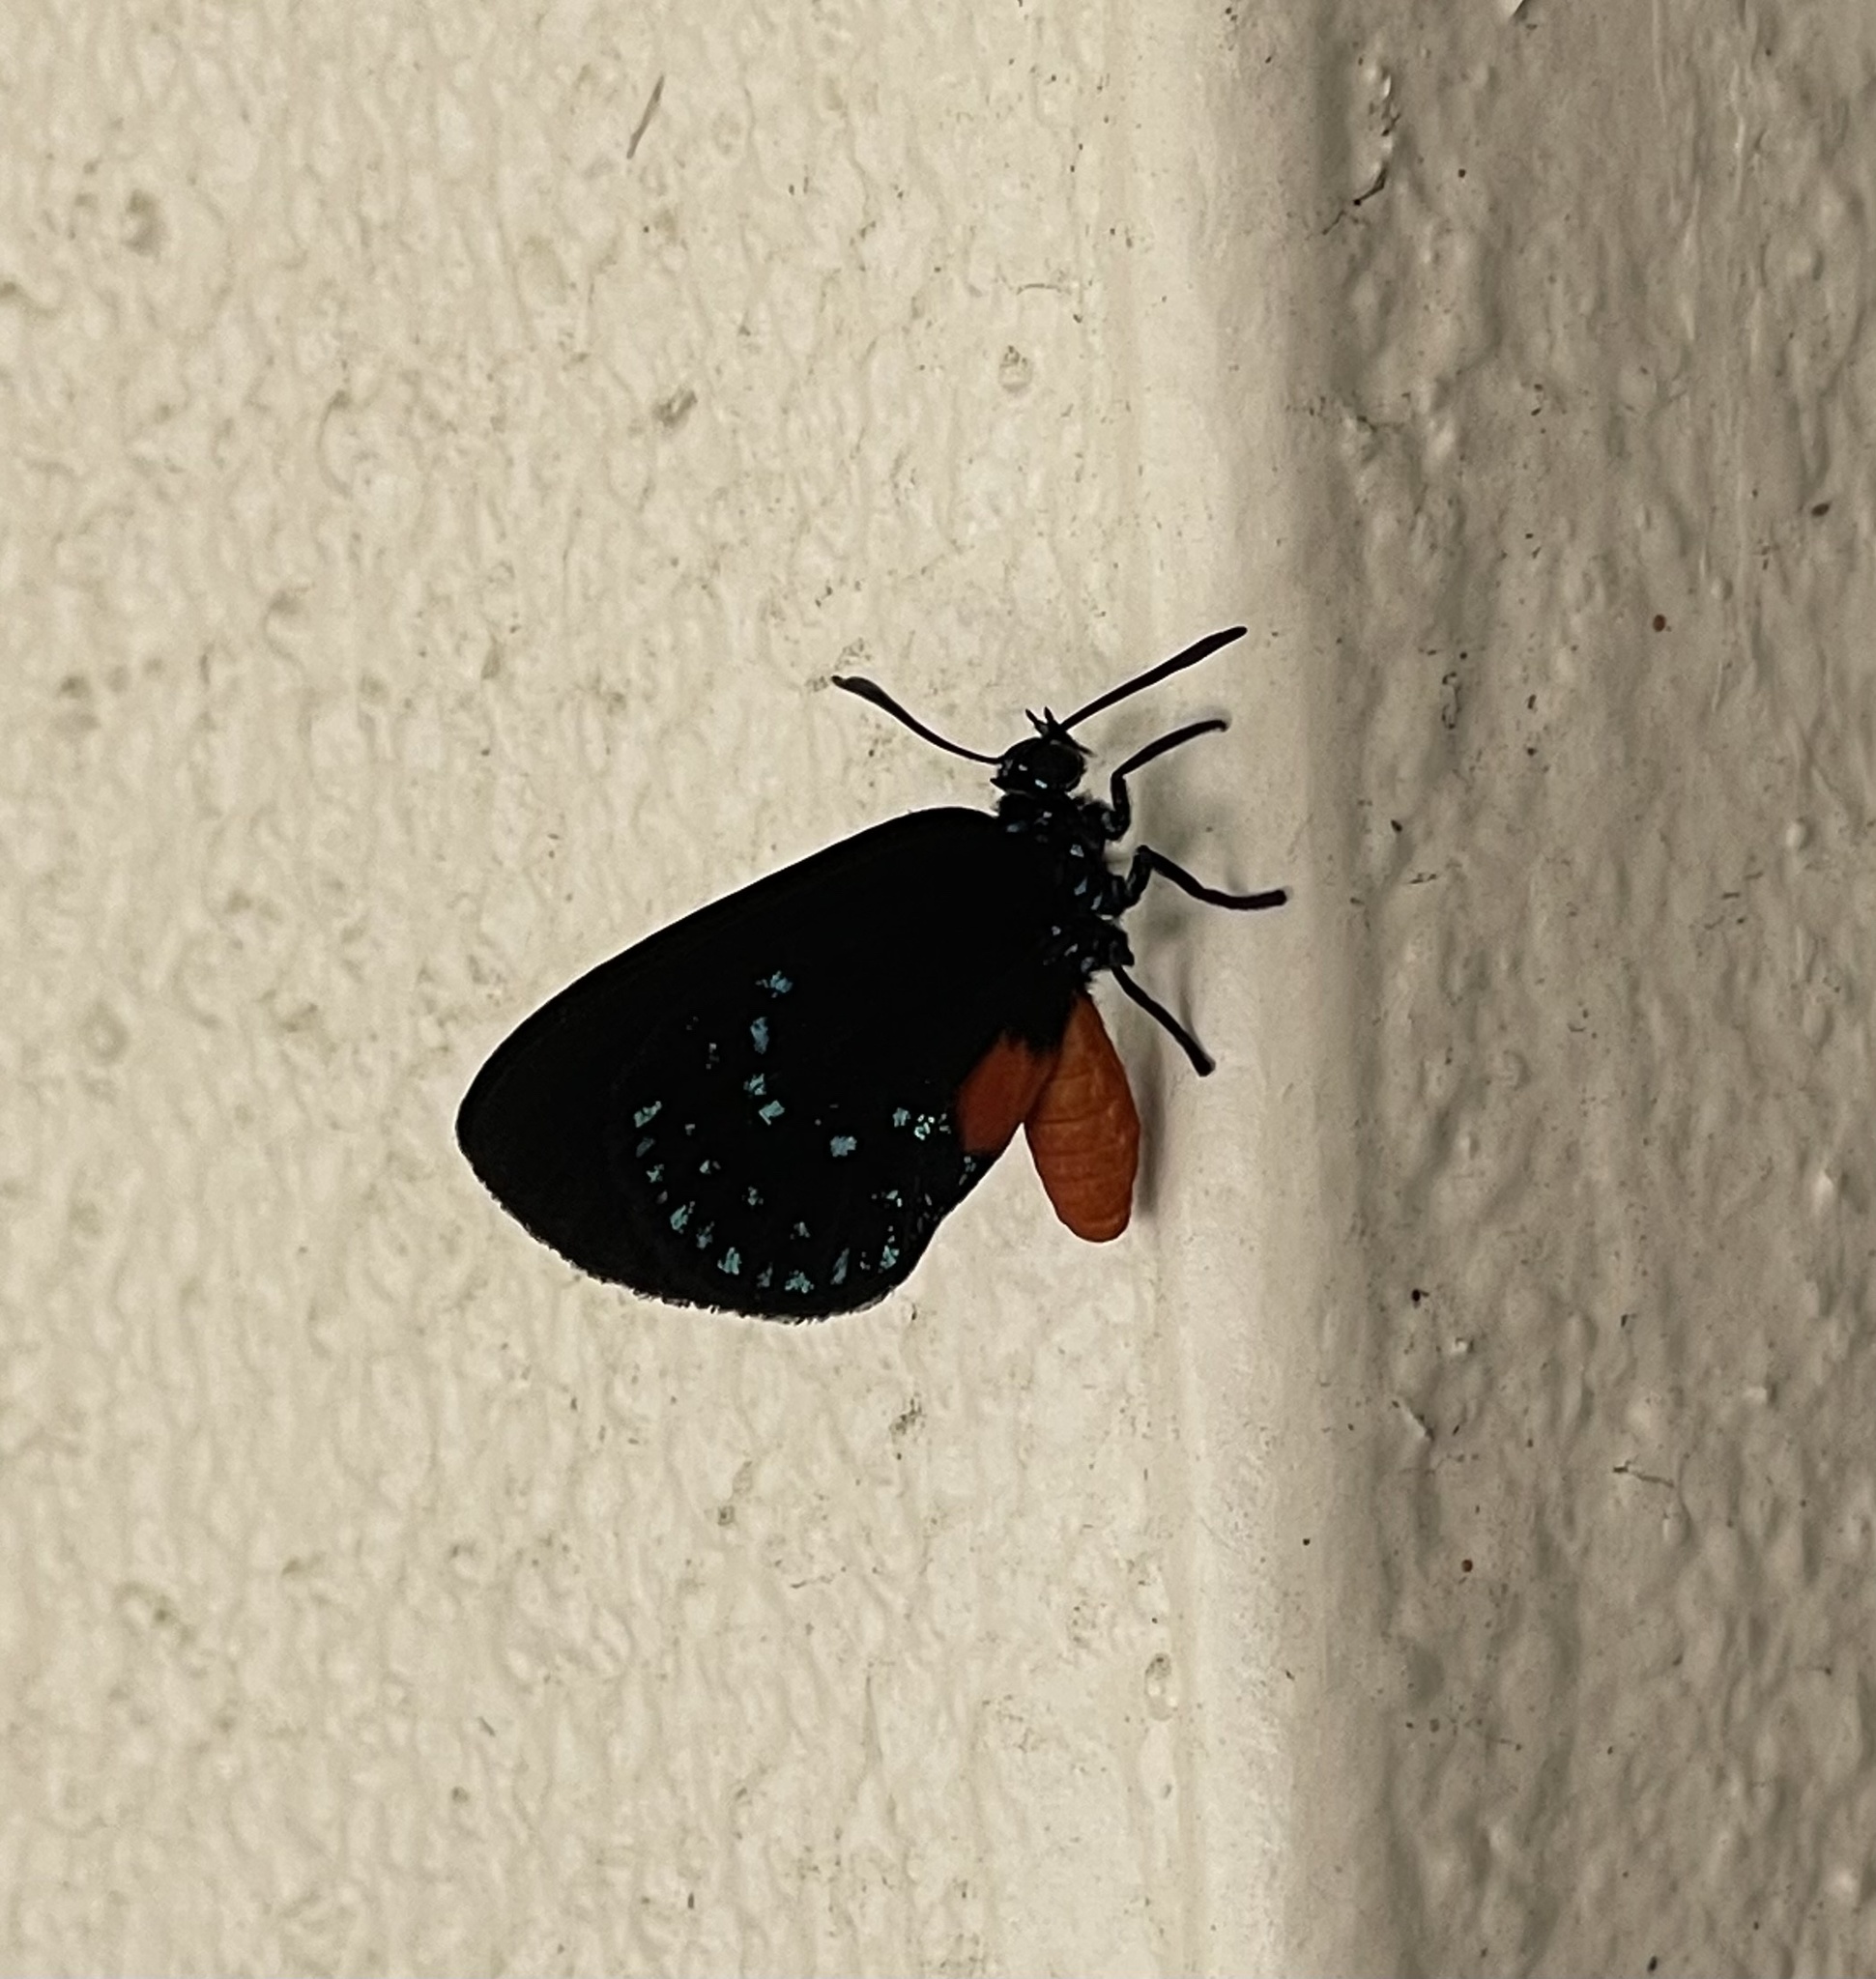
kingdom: Animalia
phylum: Arthropoda
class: Insecta
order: Lepidoptera
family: Lycaenidae
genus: Eumaeus
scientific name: Eumaeus atala
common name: Atala
